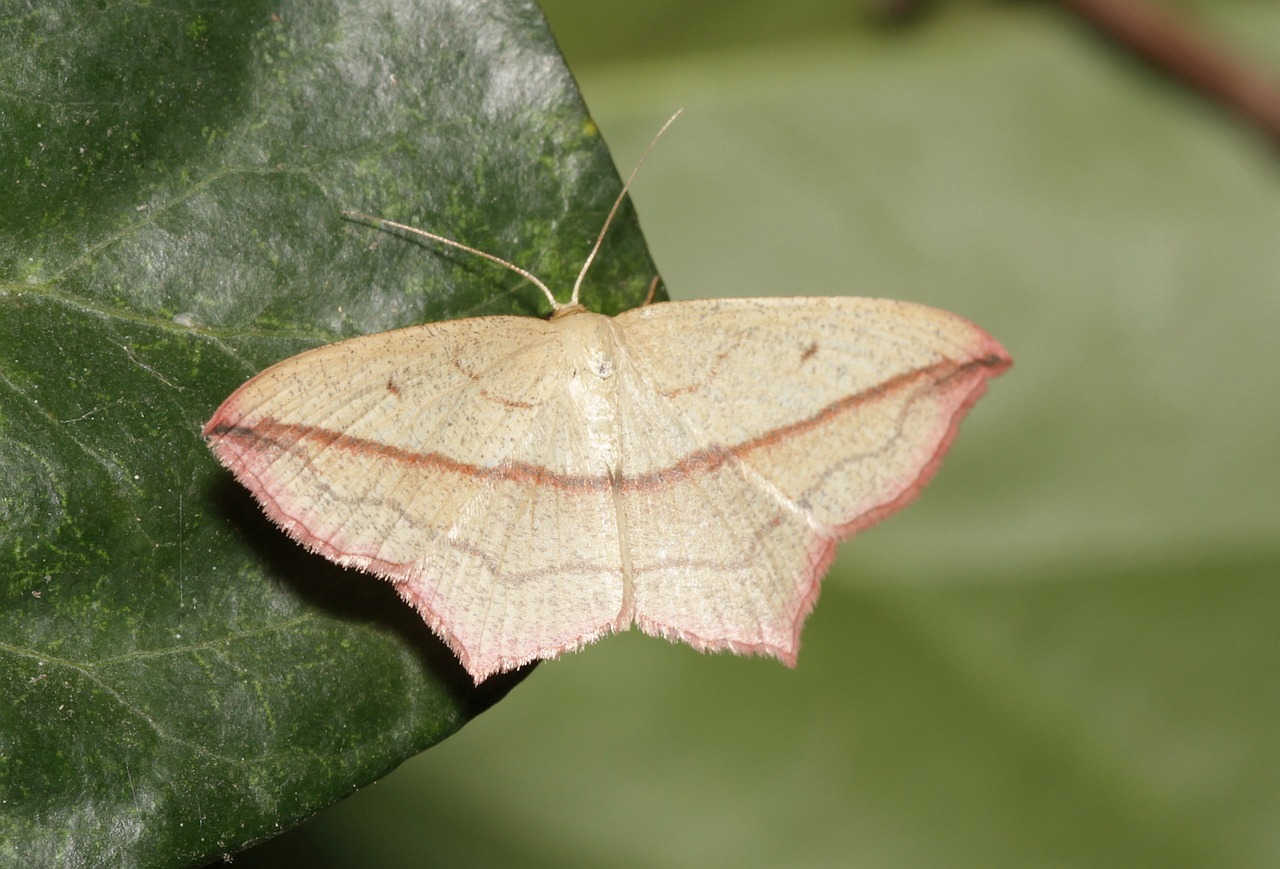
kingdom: Animalia
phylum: Arthropoda
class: Insecta
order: Lepidoptera
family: Geometridae
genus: Timandra
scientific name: Timandra comae
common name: Blood-vein
